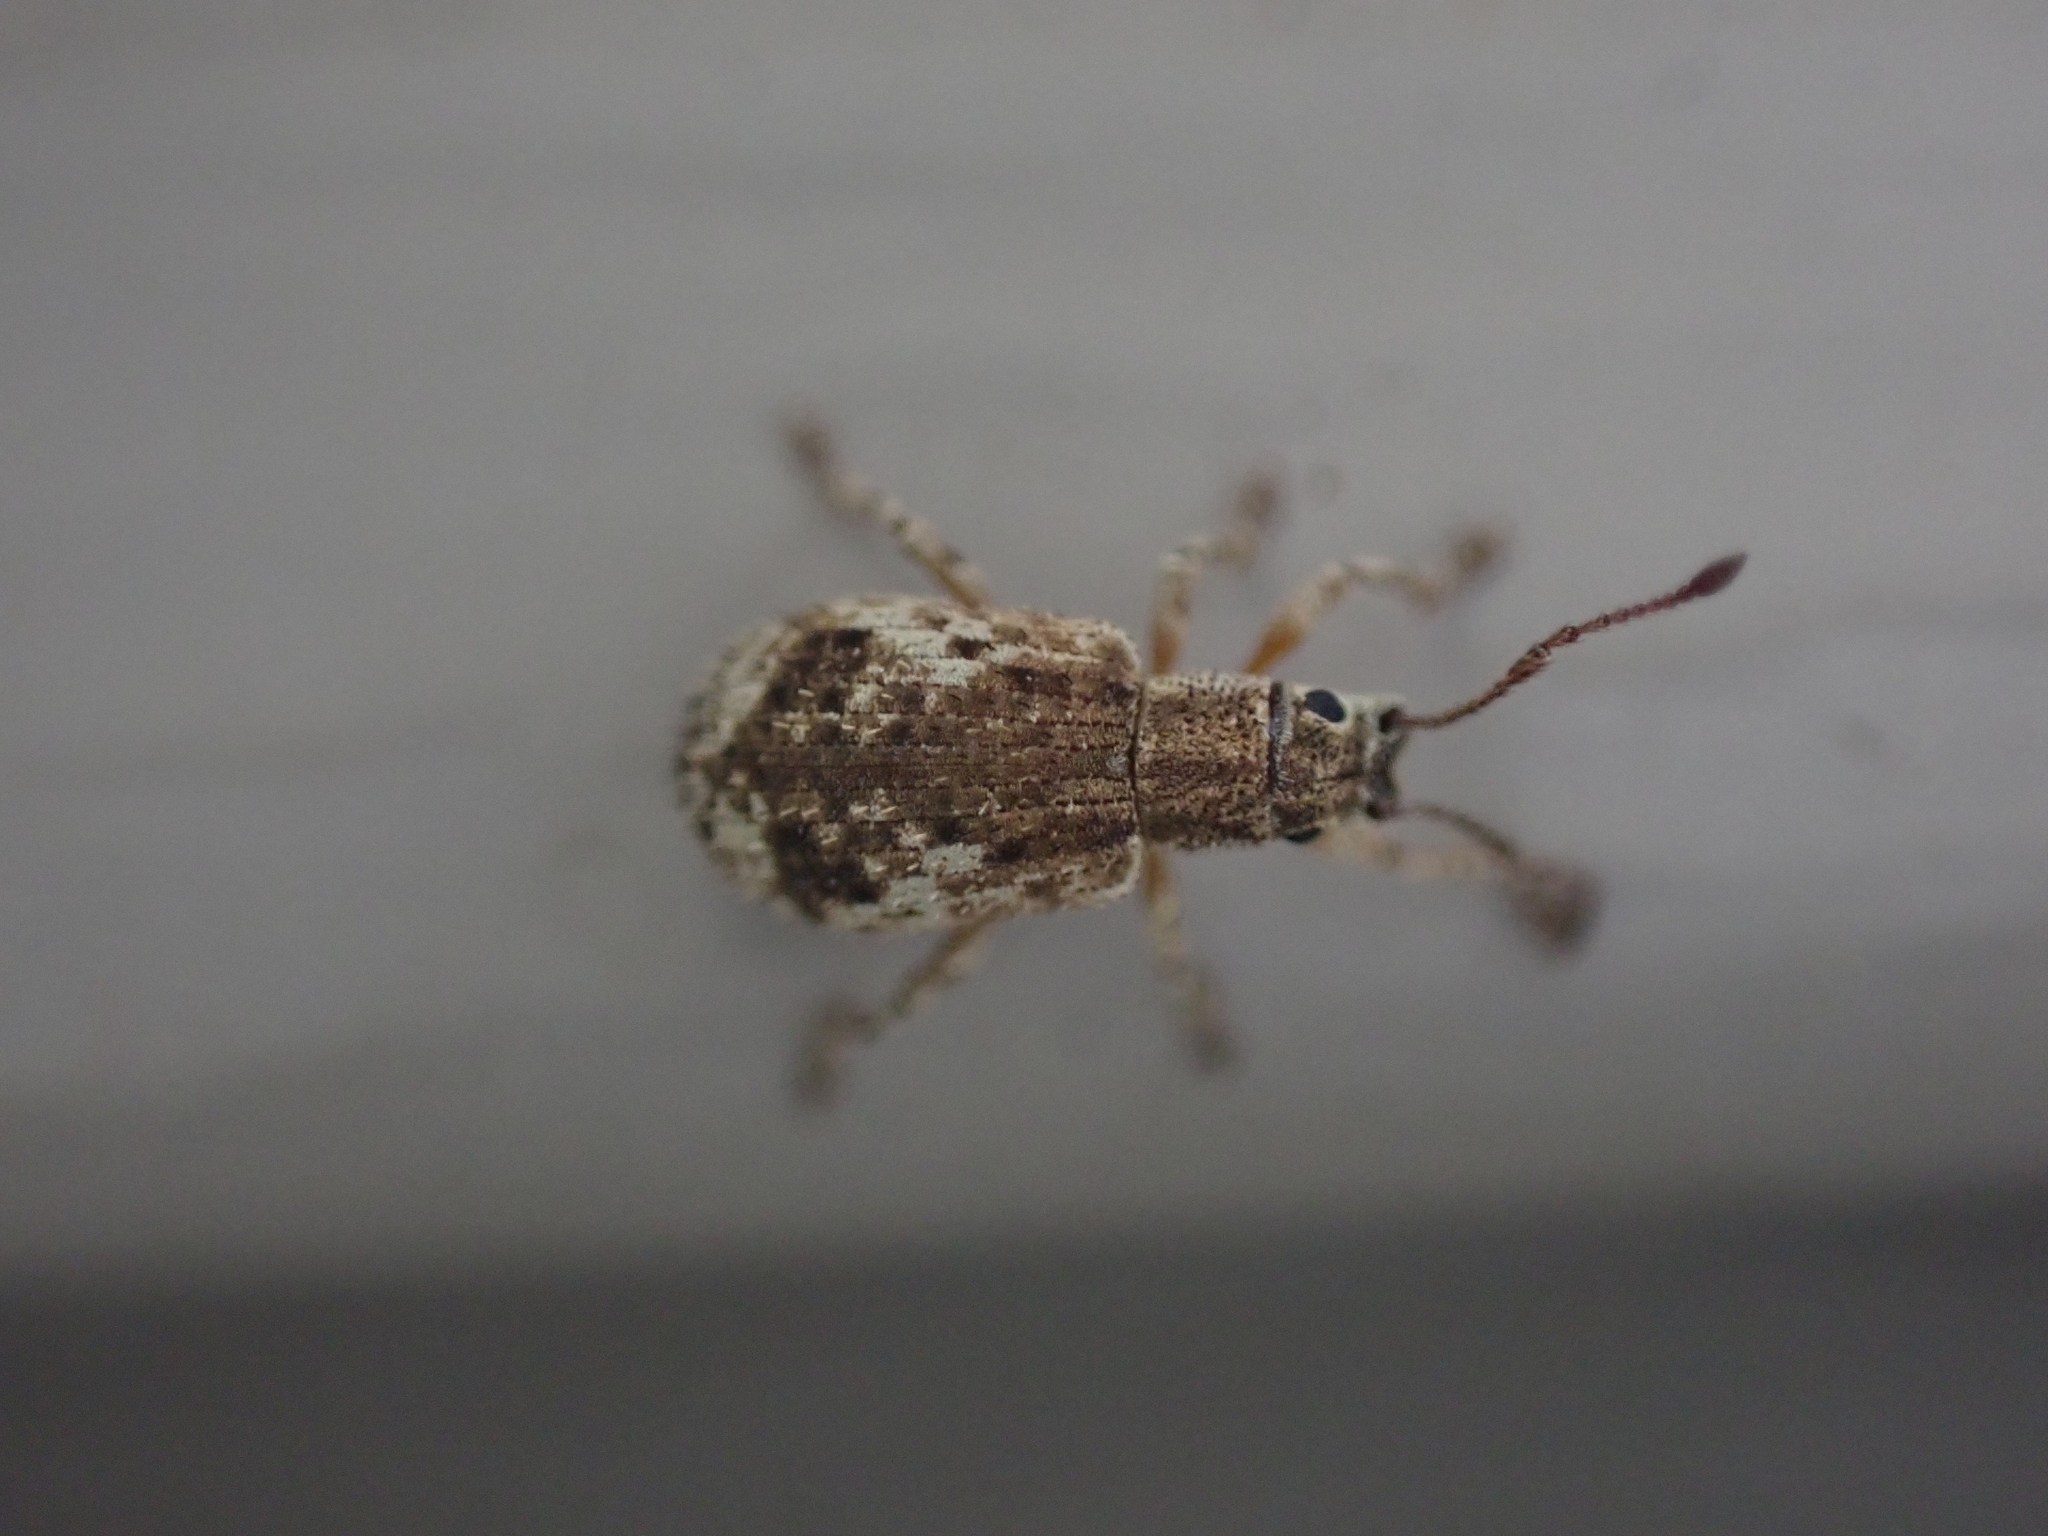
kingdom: Animalia
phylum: Arthropoda
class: Insecta
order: Coleoptera
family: Curculionidae
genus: Pseudoedophrys
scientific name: Pseudoedophrys hilleri
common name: Weevil
